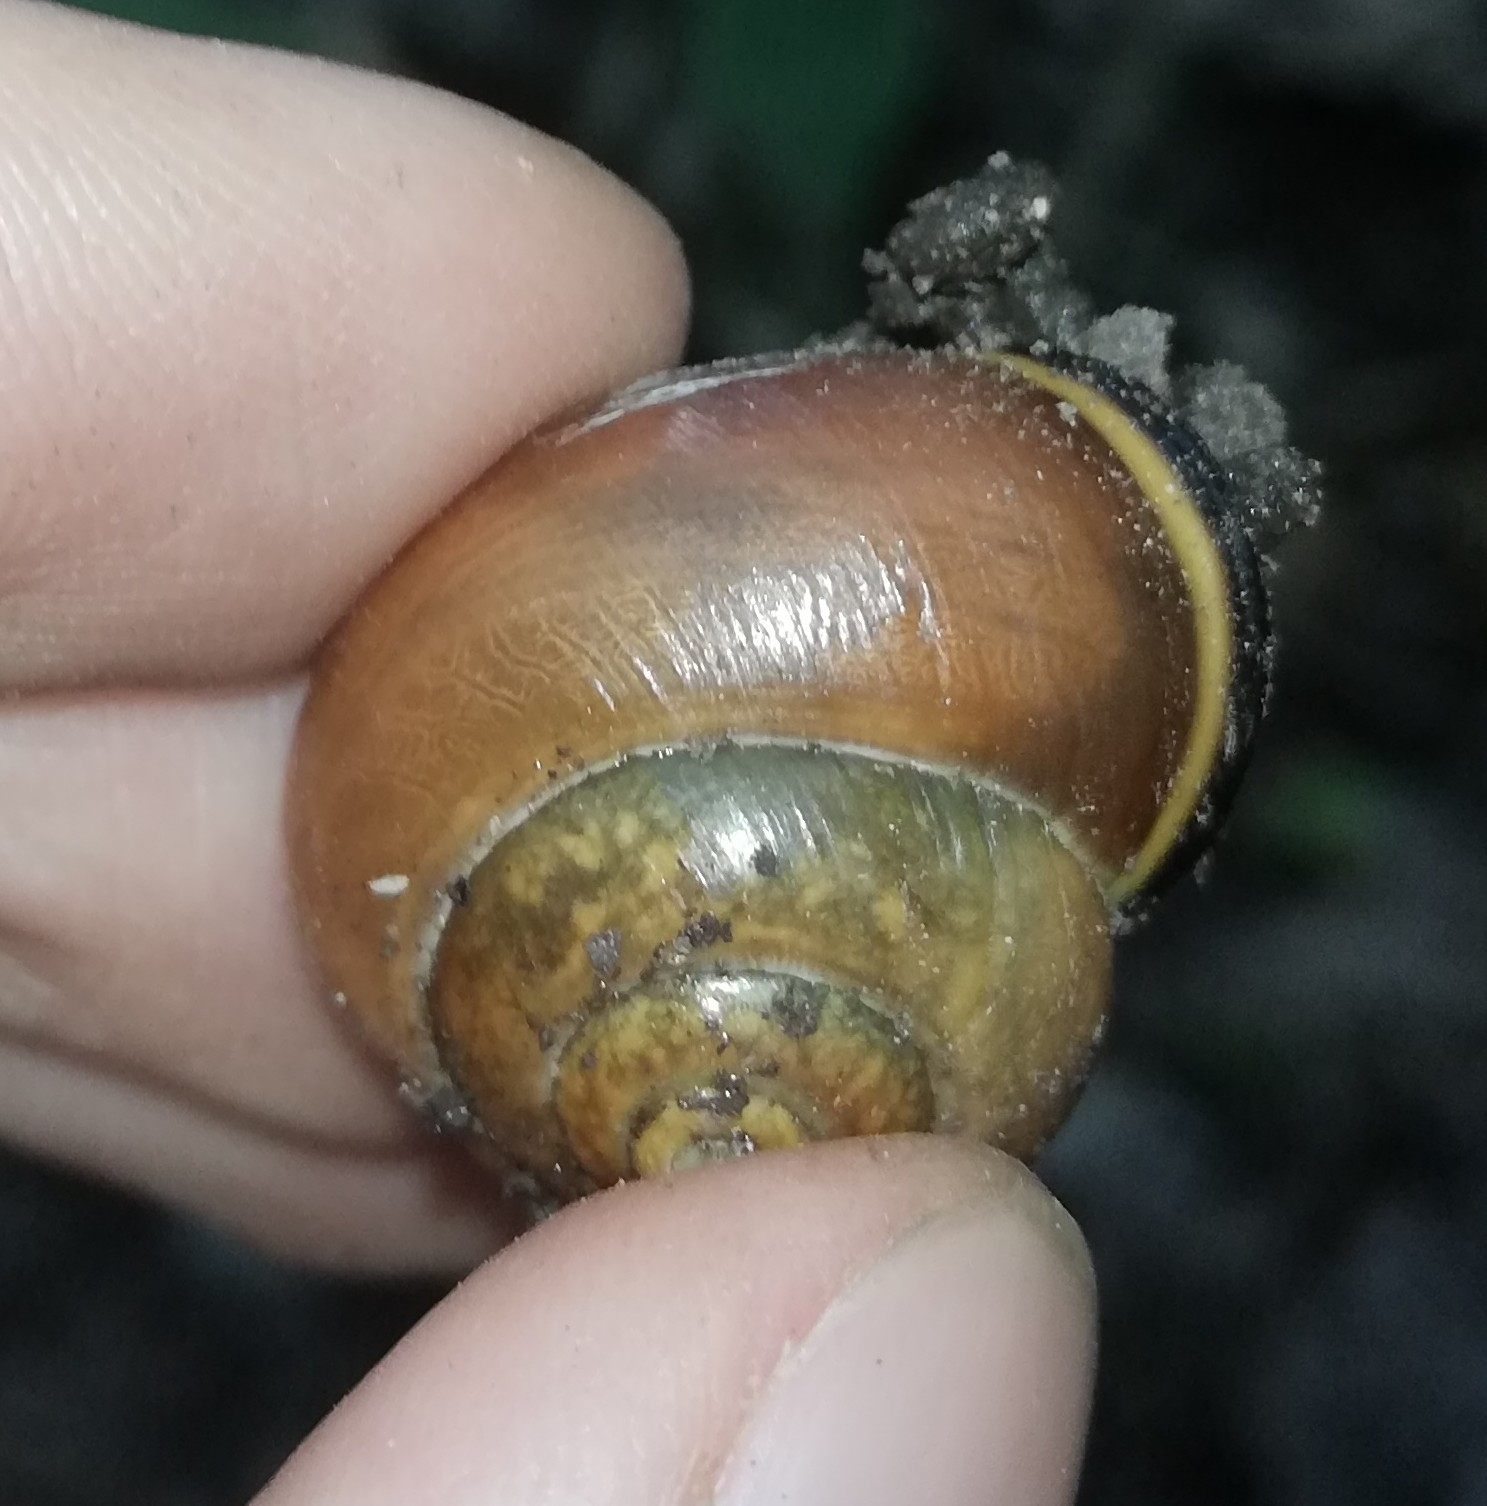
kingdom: Animalia
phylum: Mollusca
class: Gastropoda
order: Stylommatophora
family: Helicidae
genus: Cepaea
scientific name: Cepaea nemoralis
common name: Grovesnail
